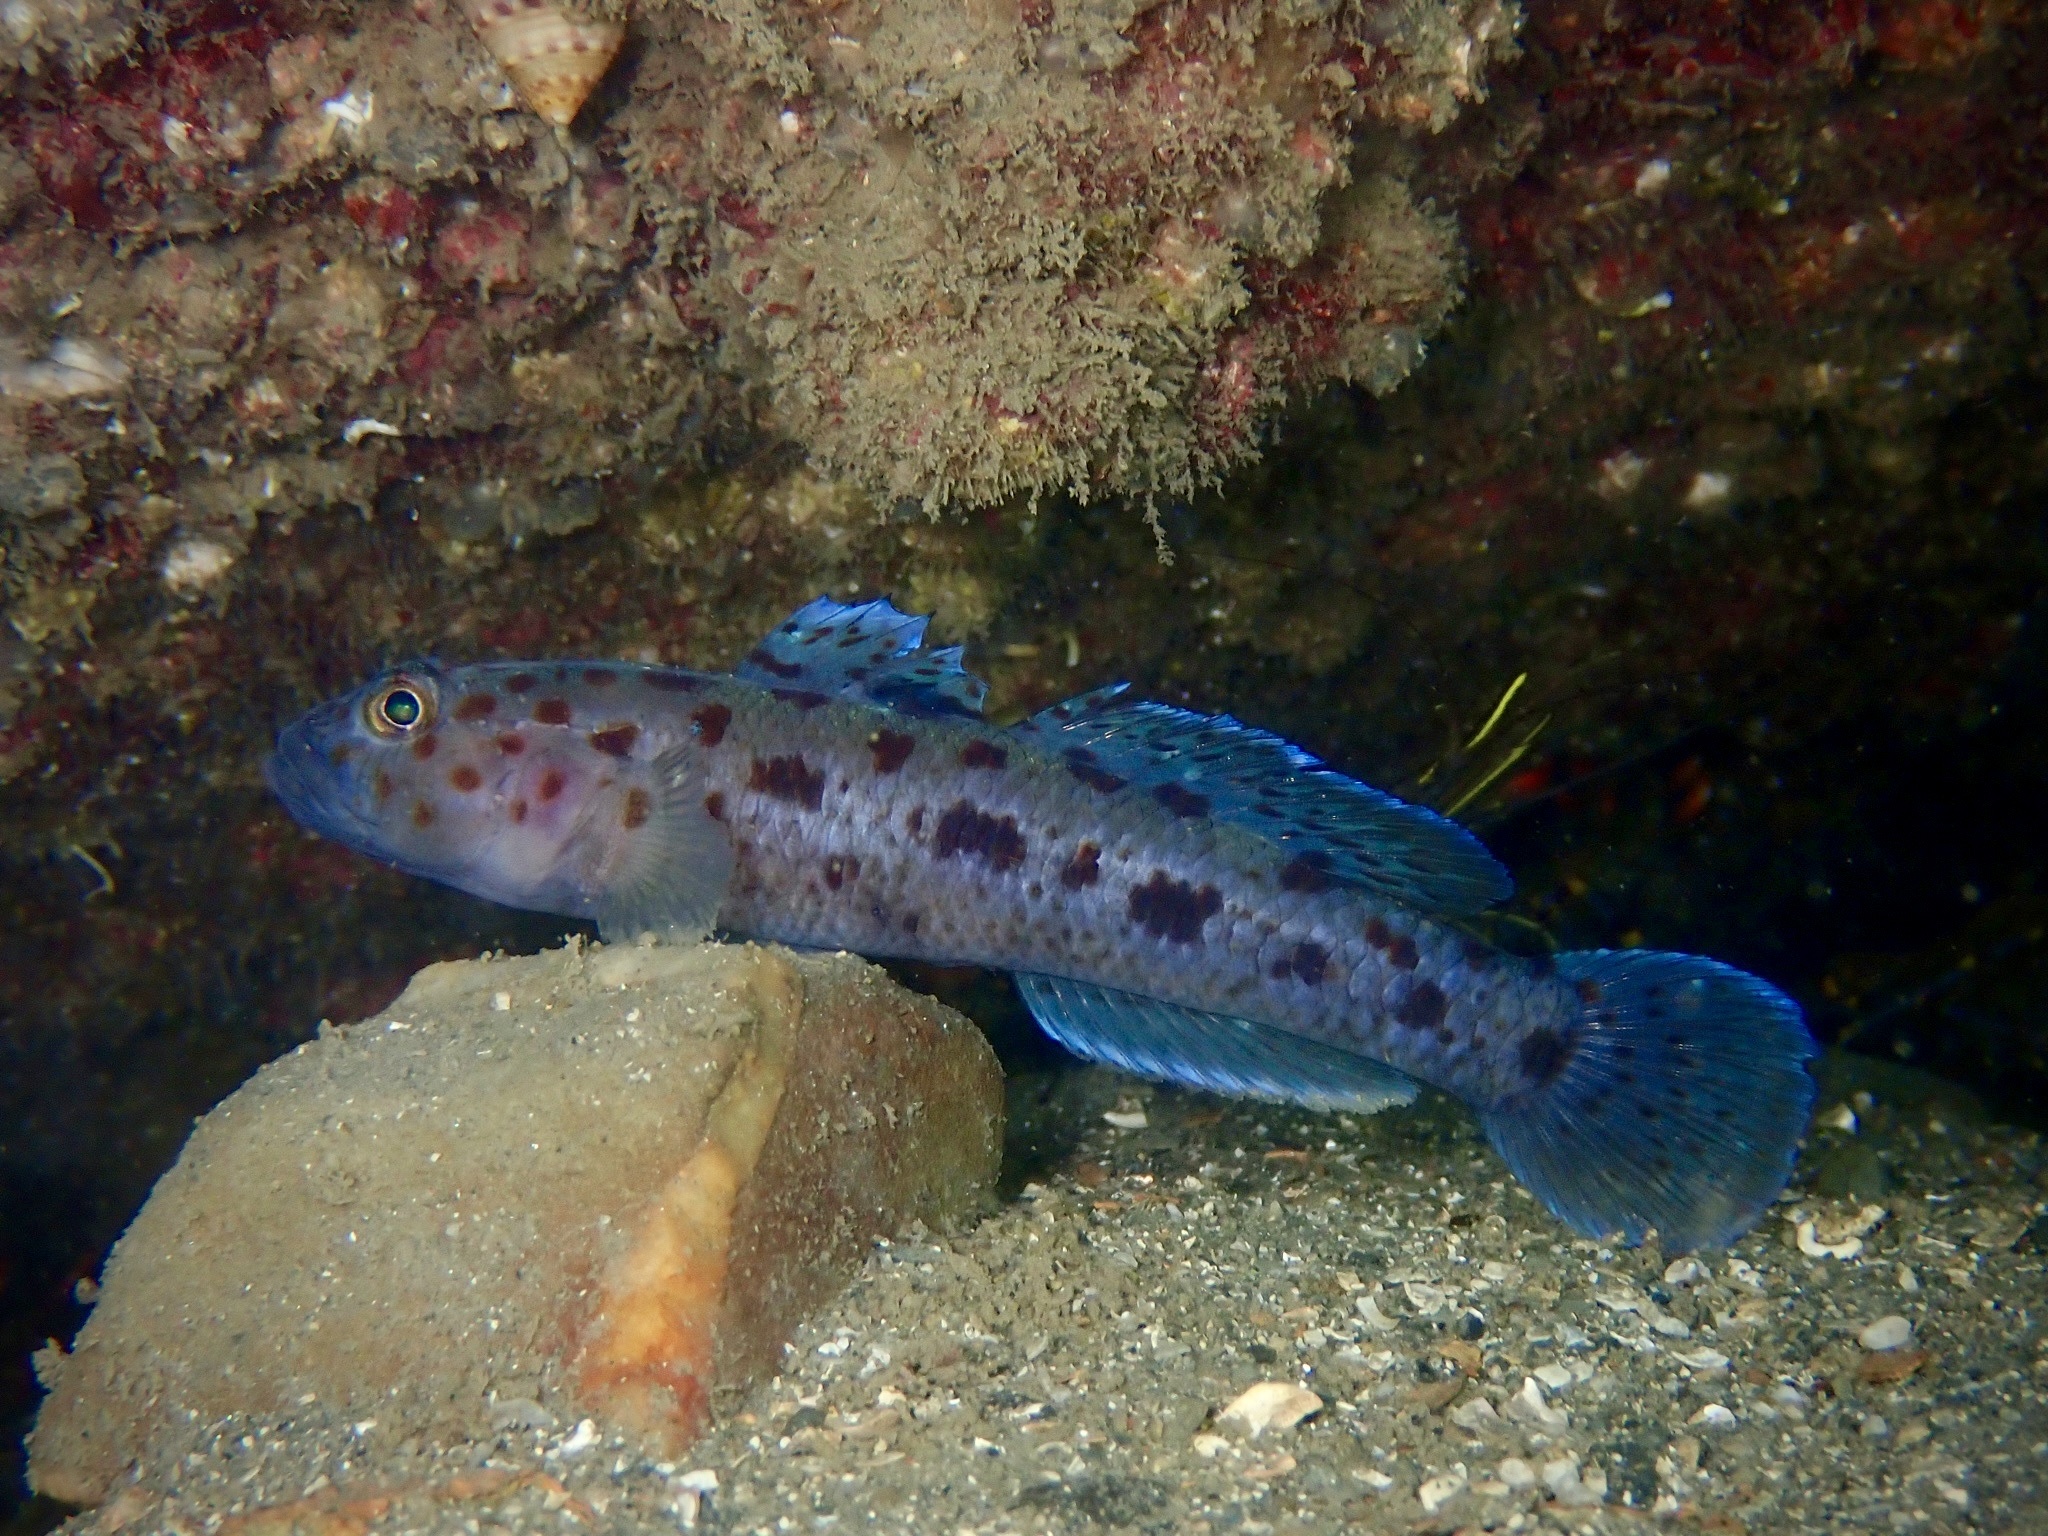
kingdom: Animalia
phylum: Chordata
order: Perciformes
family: Gobiidae
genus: Thorogobius
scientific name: Thorogobius ephippiatus
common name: Leopard-spotted goby
